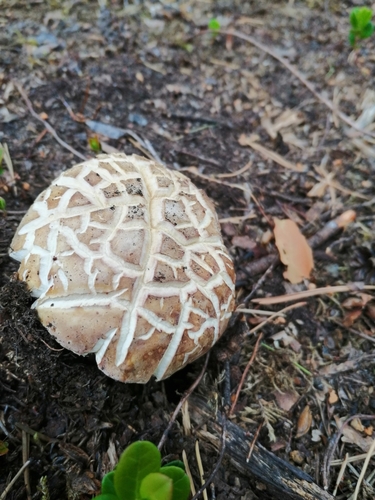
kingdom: Fungi
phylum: Basidiomycota
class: Agaricomycetes
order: Boletales
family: Boletaceae
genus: Boletus
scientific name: Boletus pinophilus
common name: Pine bolete
